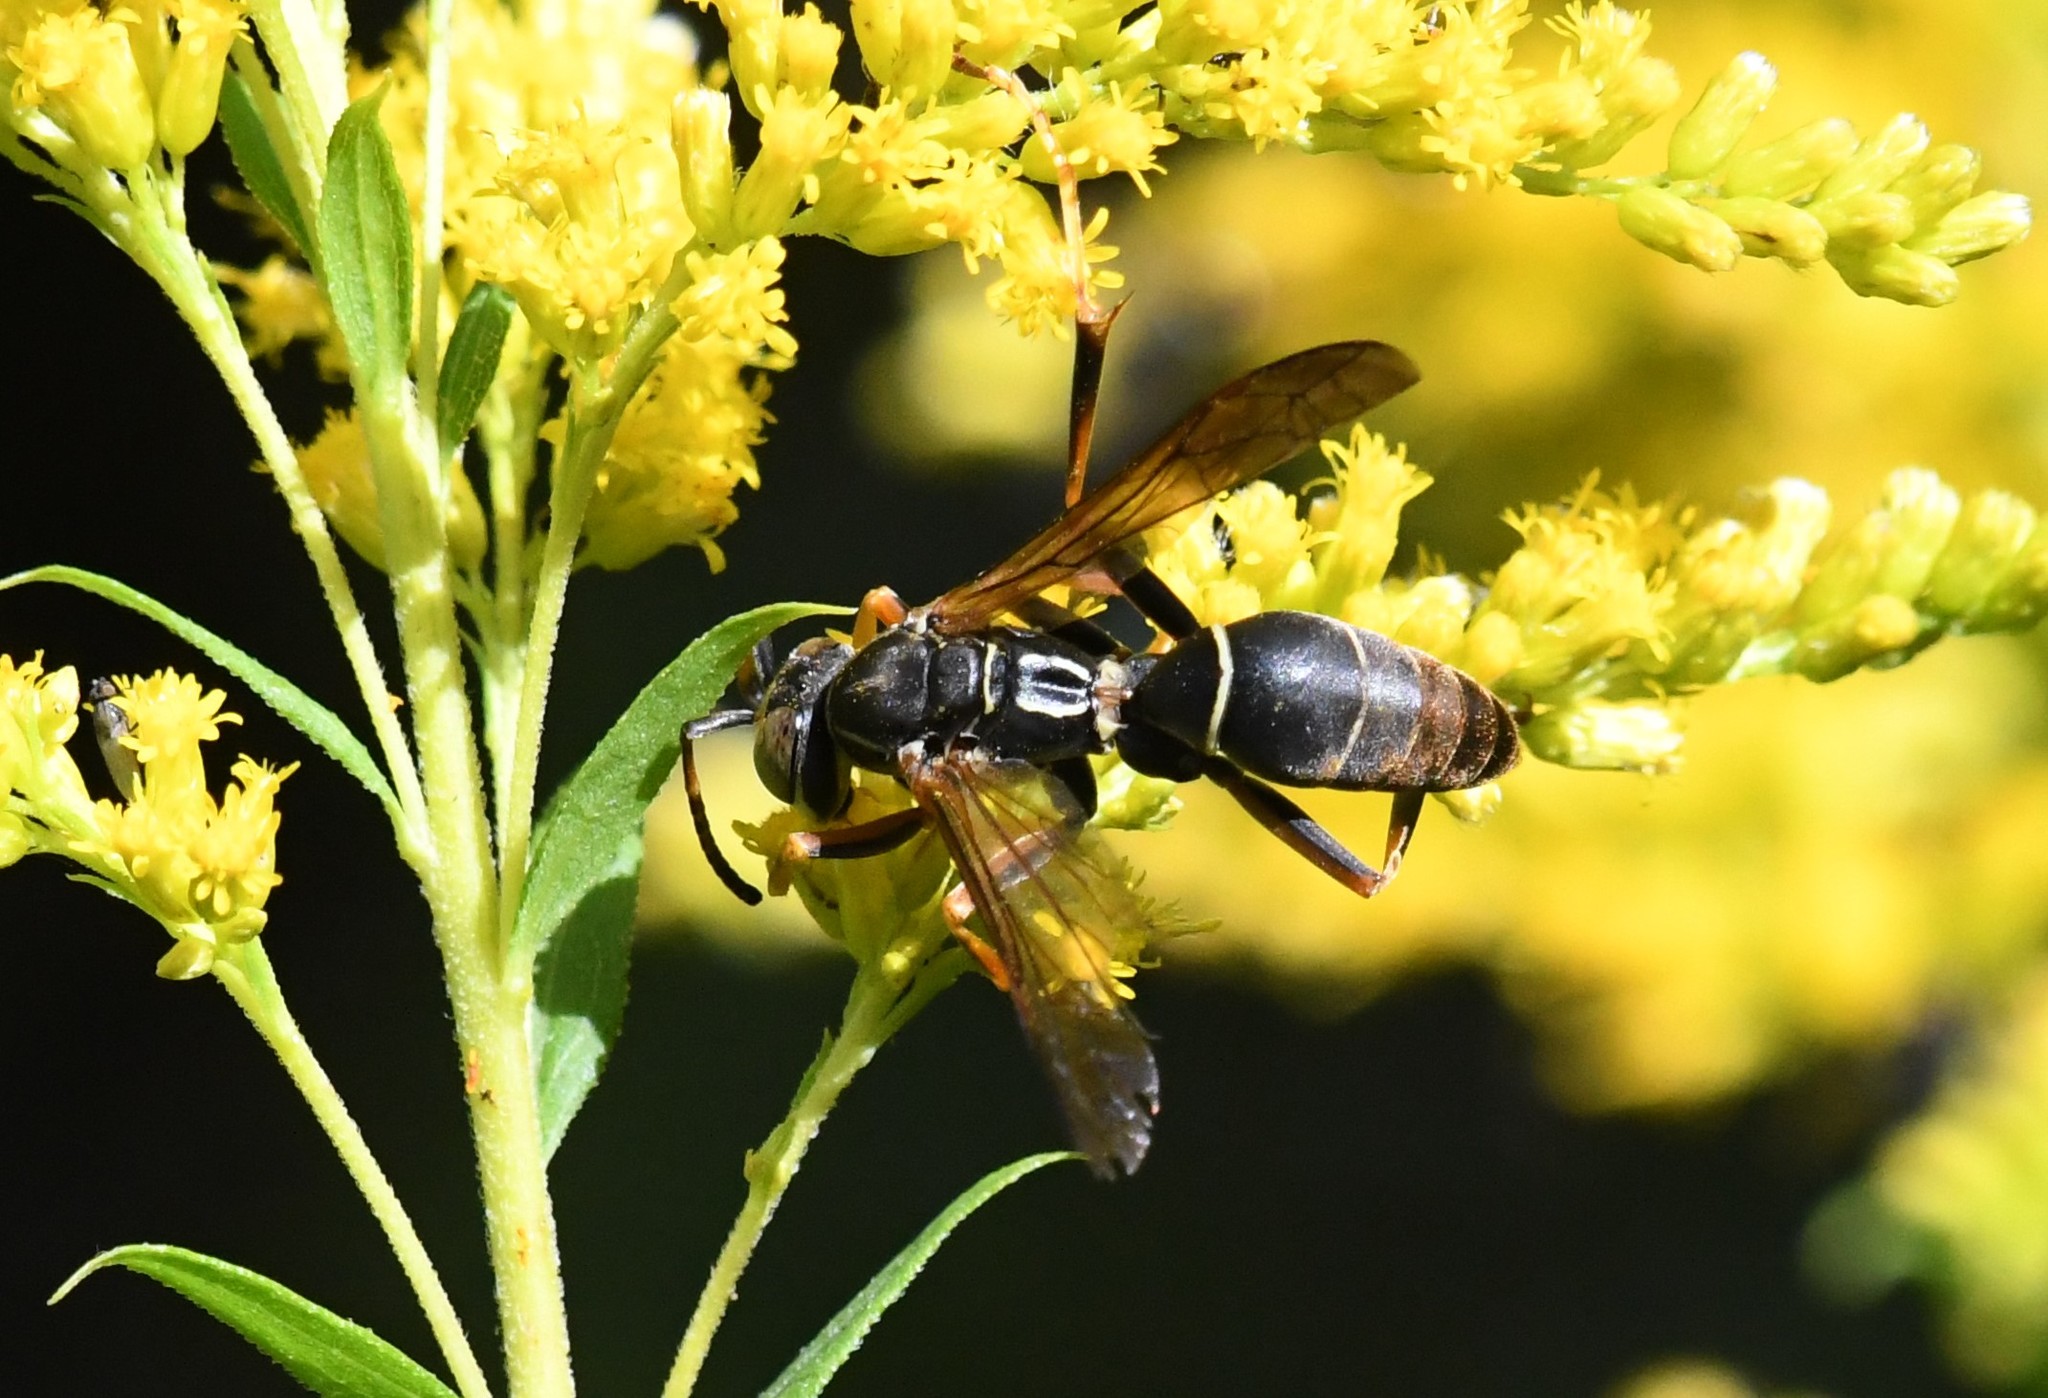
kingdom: Animalia
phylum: Arthropoda
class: Insecta
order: Hymenoptera
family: Eumenidae
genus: Polistes
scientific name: Polistes fuscatus
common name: Dark paper wasp
